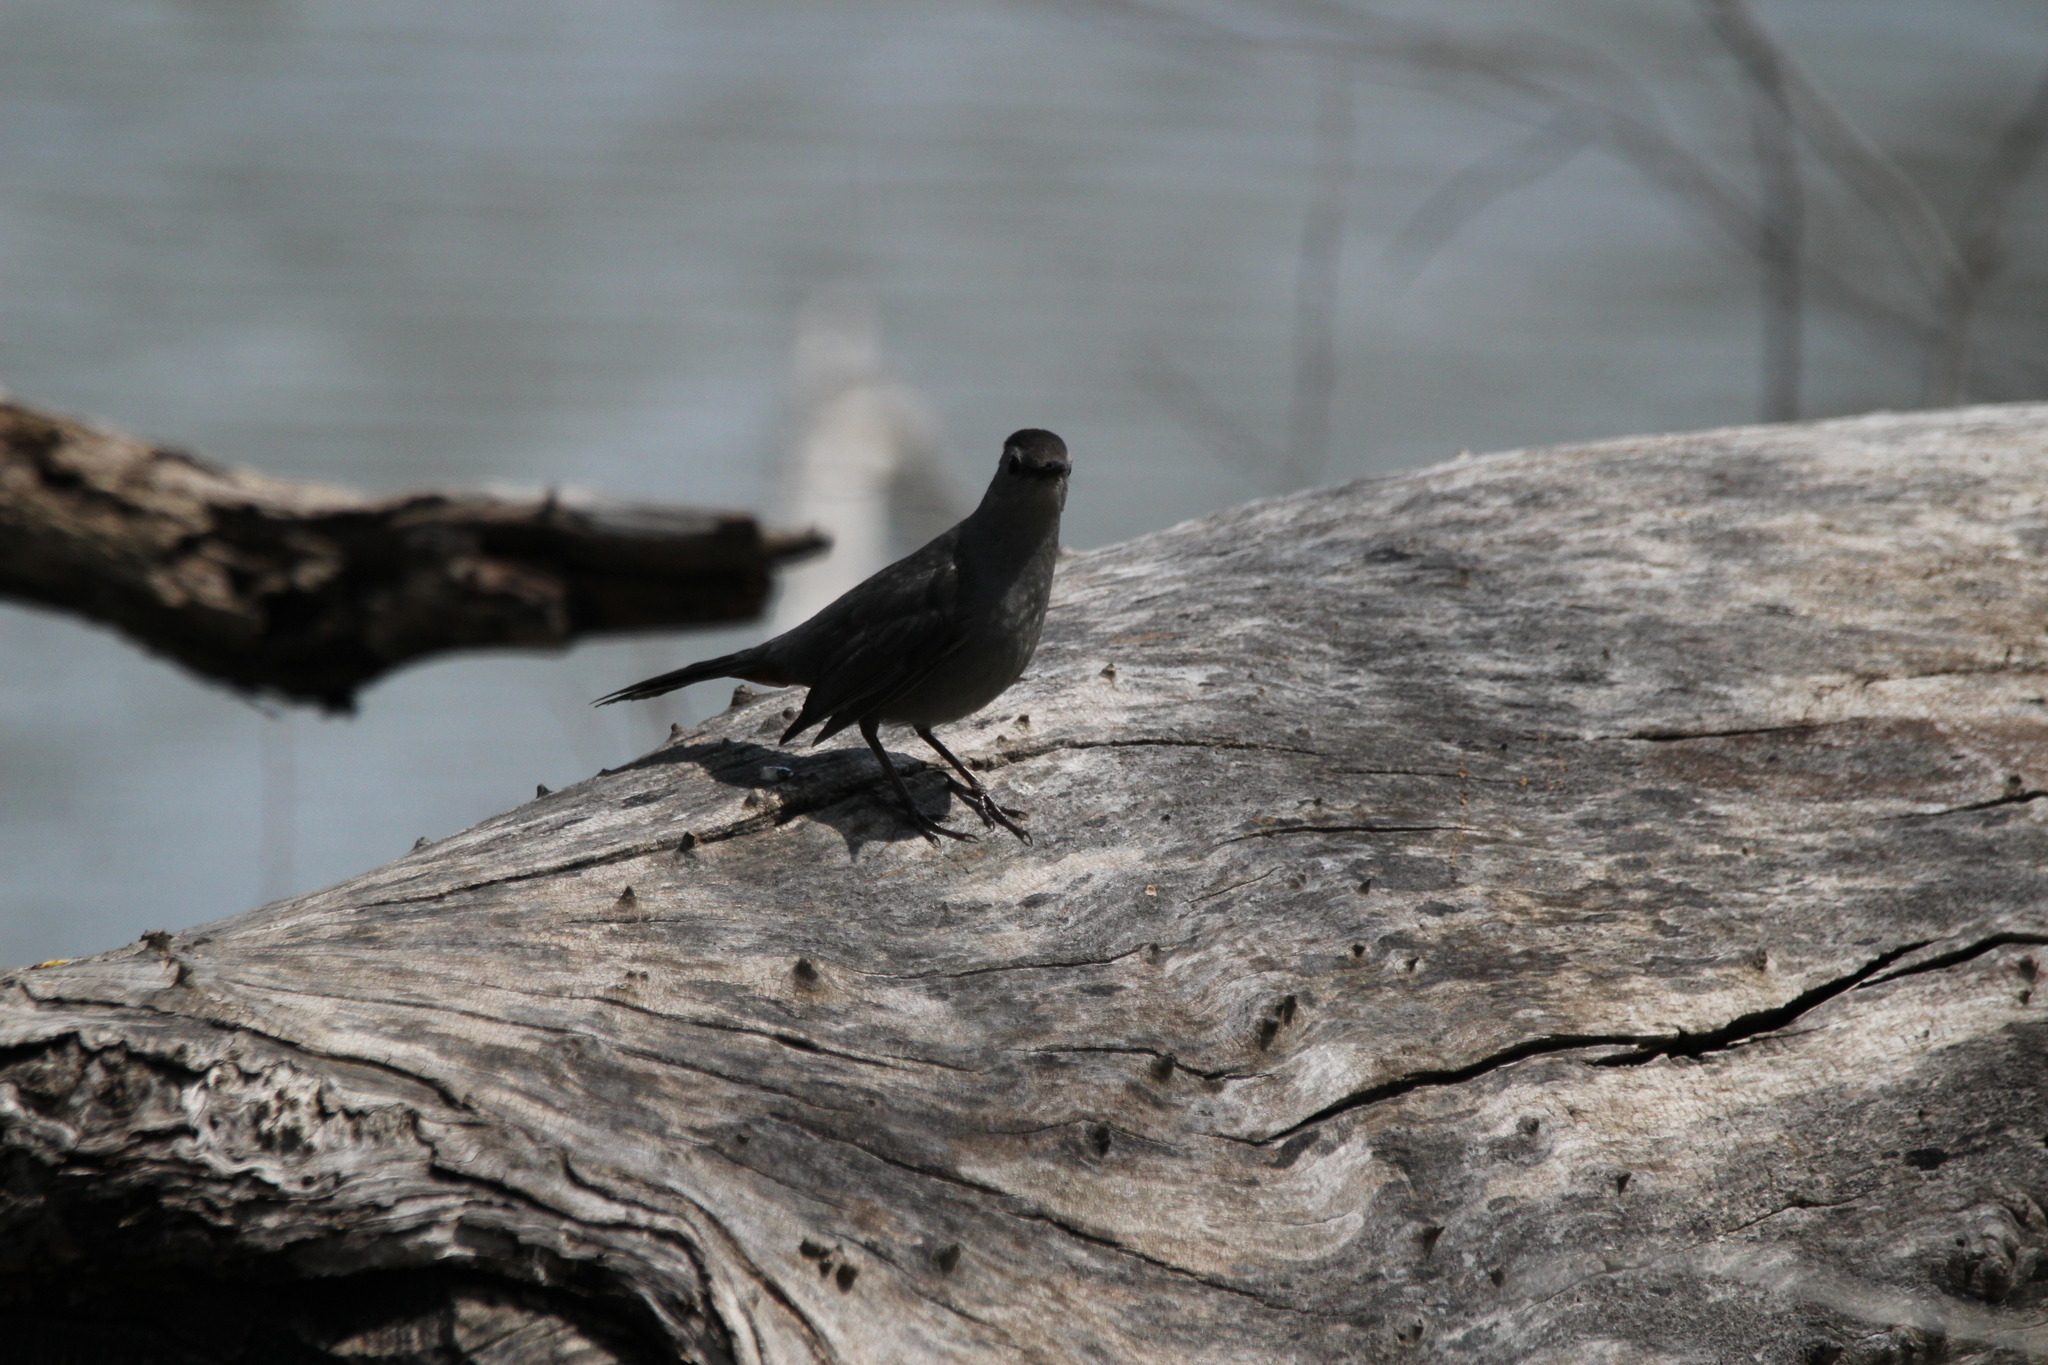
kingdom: Animalia
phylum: Chordata
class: Aves
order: Passeriformes
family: Mimidae
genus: Dumetella
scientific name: Dumetella carolinensis
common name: Gray catbird
